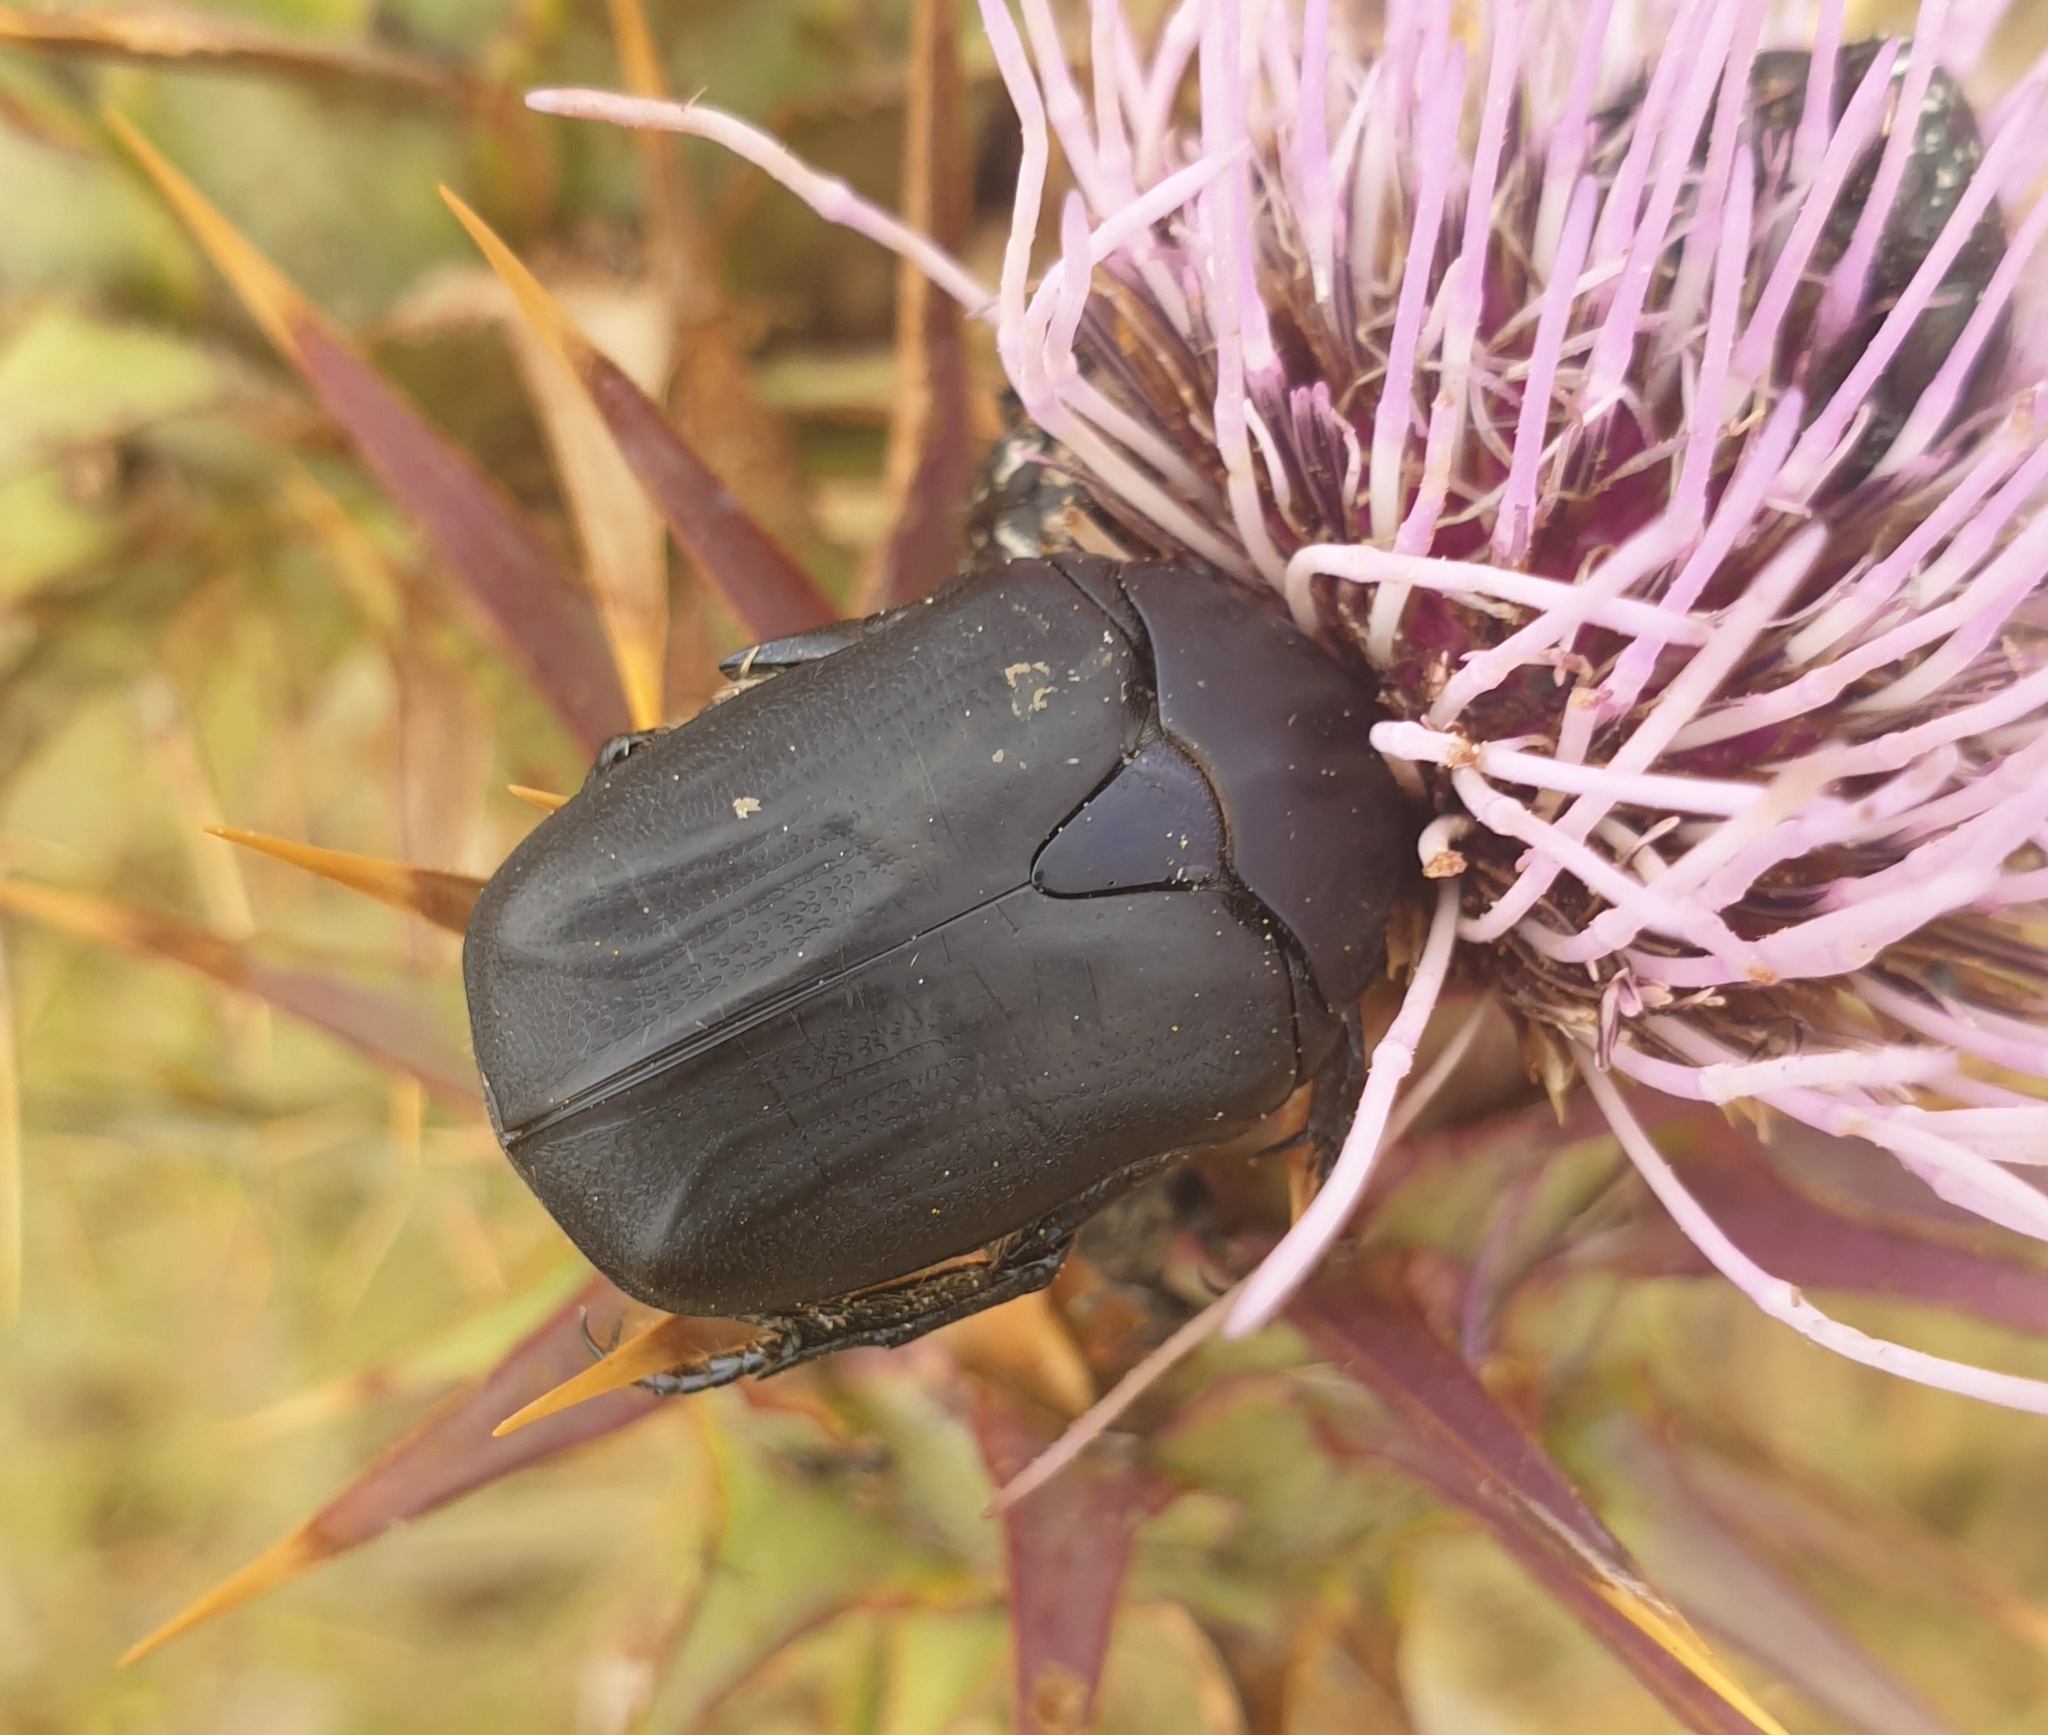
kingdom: Animalia
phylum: Arthropoda
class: Insecta
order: Coleoptera
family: Scarabaeidae
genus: Protaetia
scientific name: Protaetia opaca
